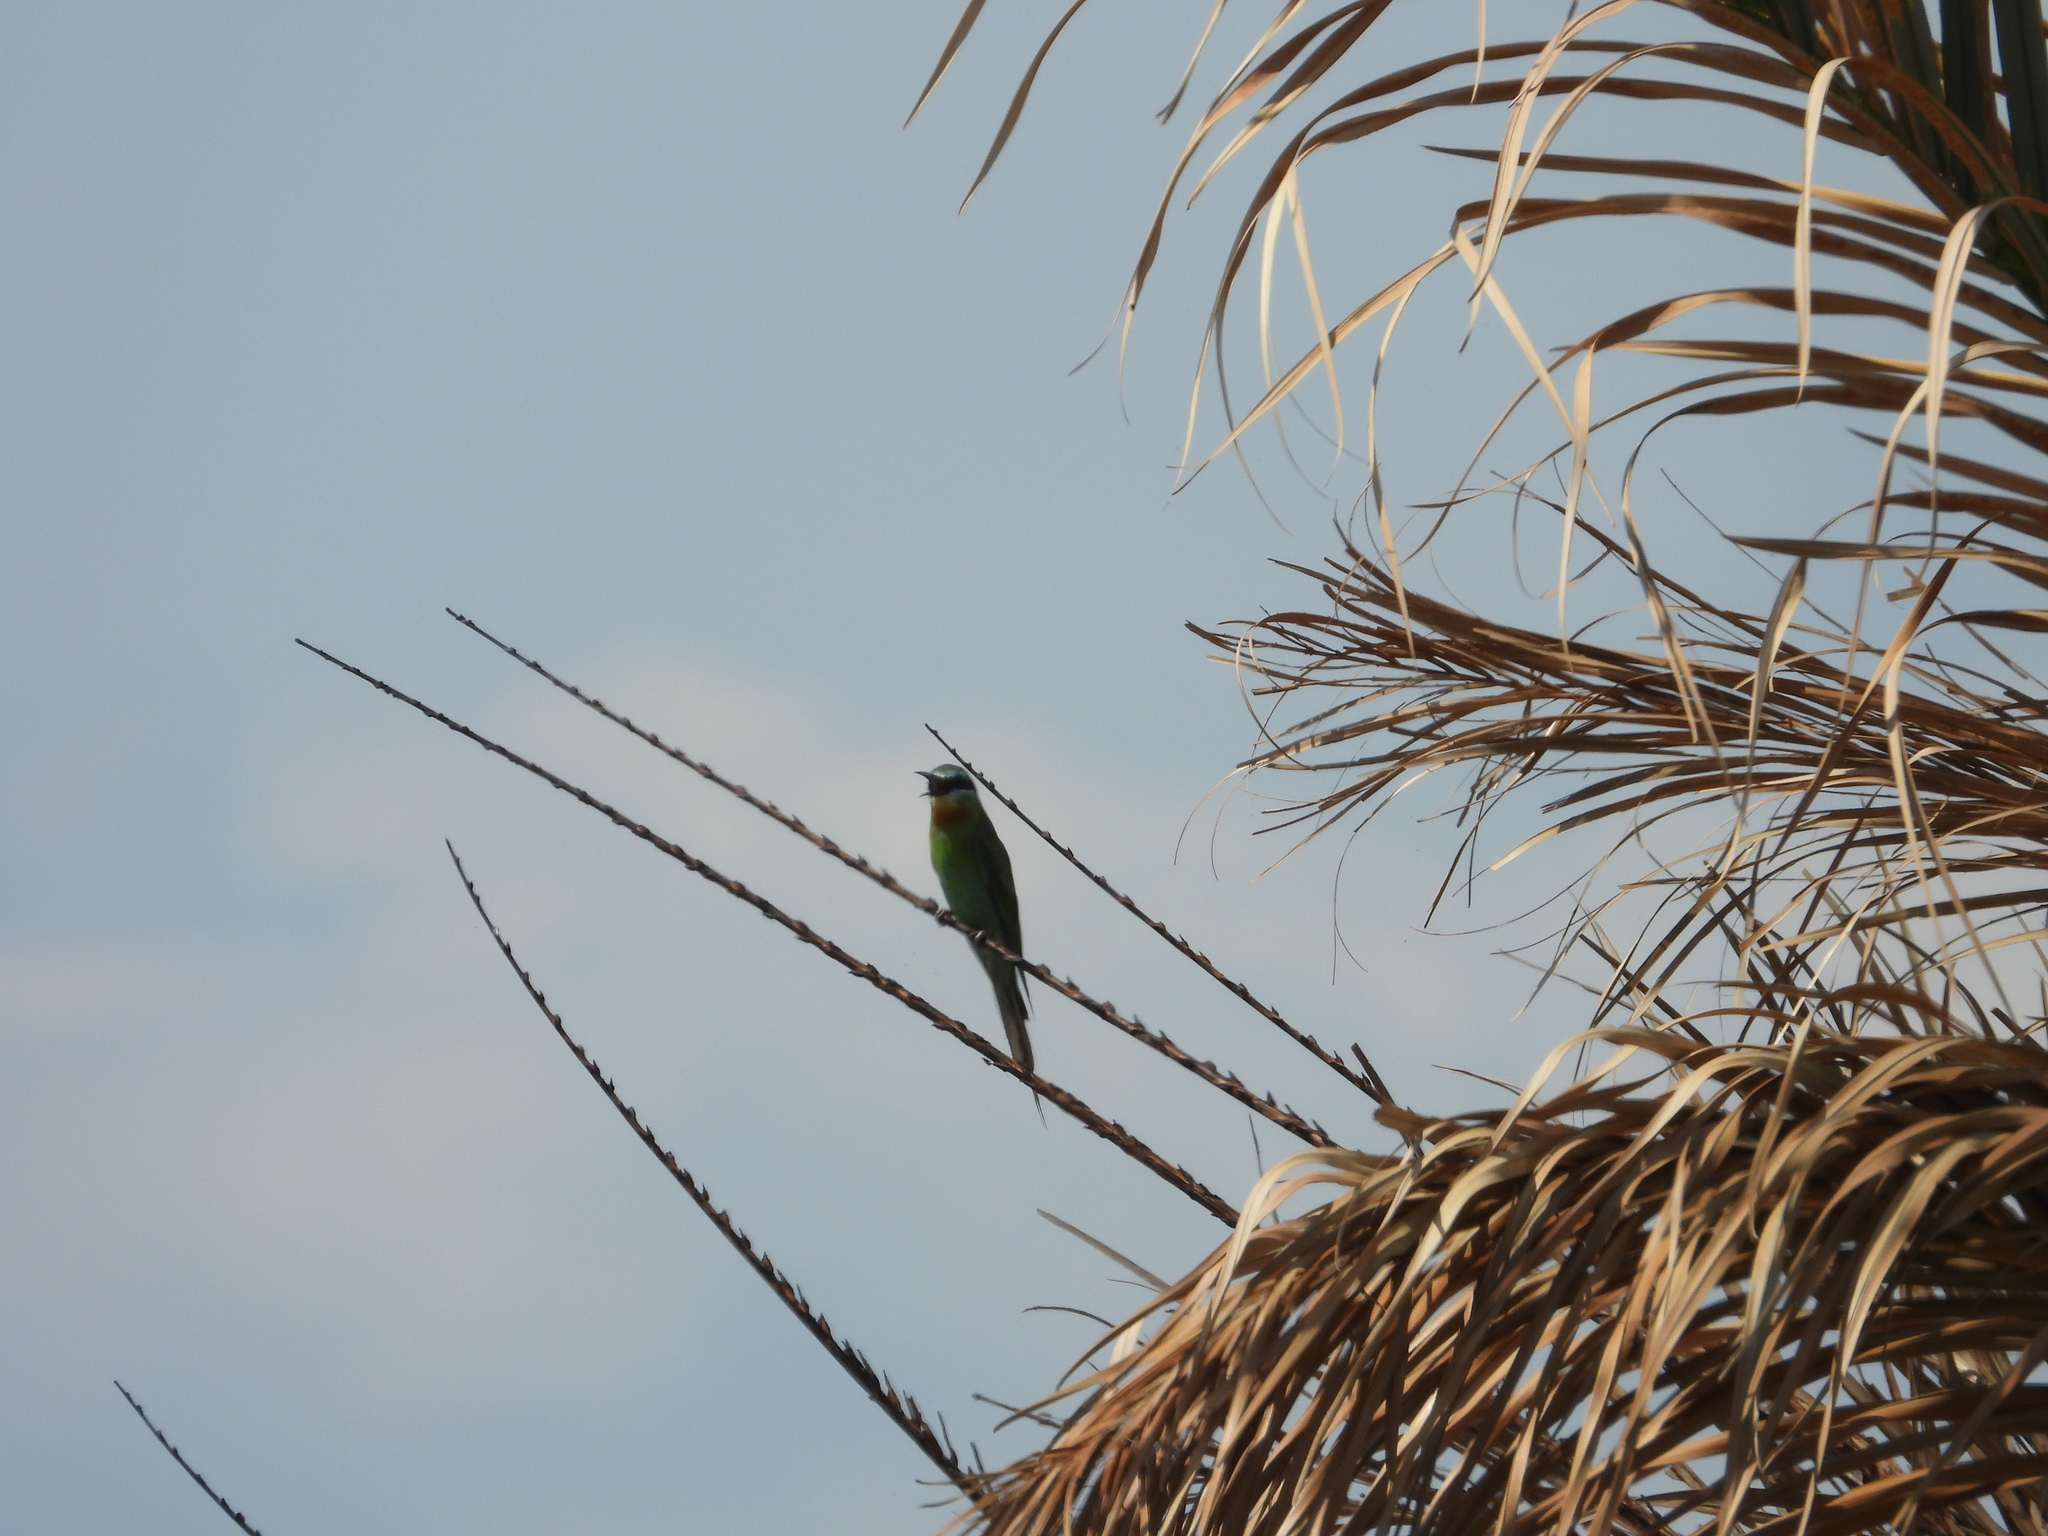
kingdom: Animalia
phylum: Chordata
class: Aves
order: Coraciiformes
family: Meropidae
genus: Merops
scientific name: Merops persicus
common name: Blue-cheeked bee-eater
